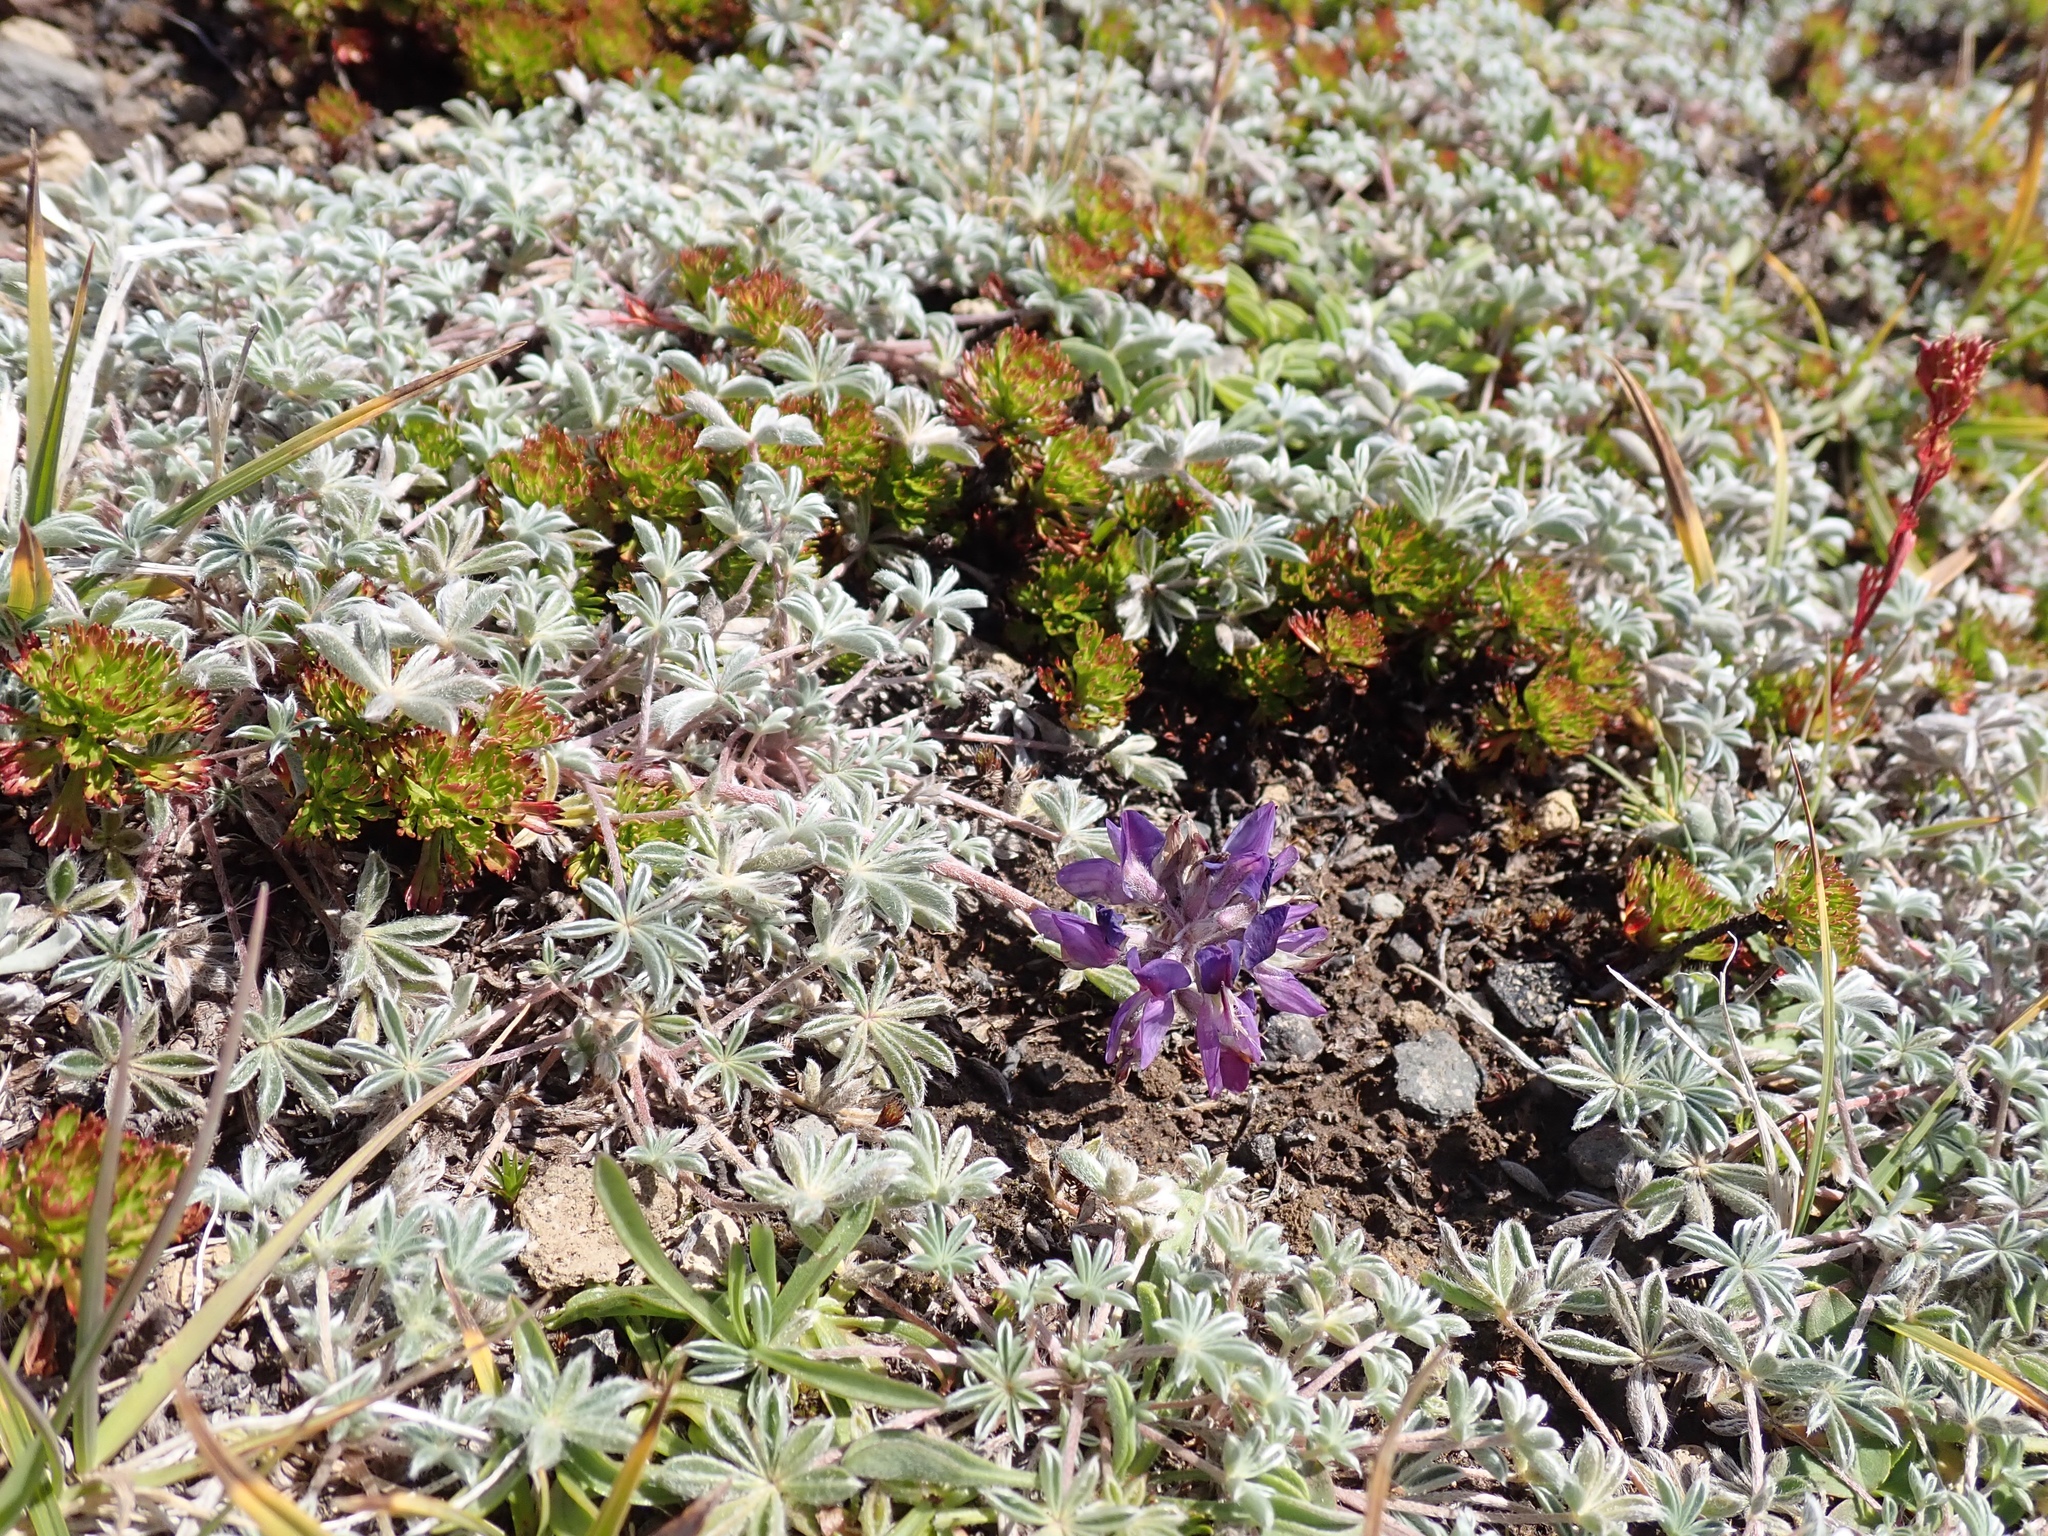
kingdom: Plantae
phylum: Tracheophyta
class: Magnoliopsida
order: Fabales
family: Fabaceae
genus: Lupinus
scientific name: Lupinus sellulus
